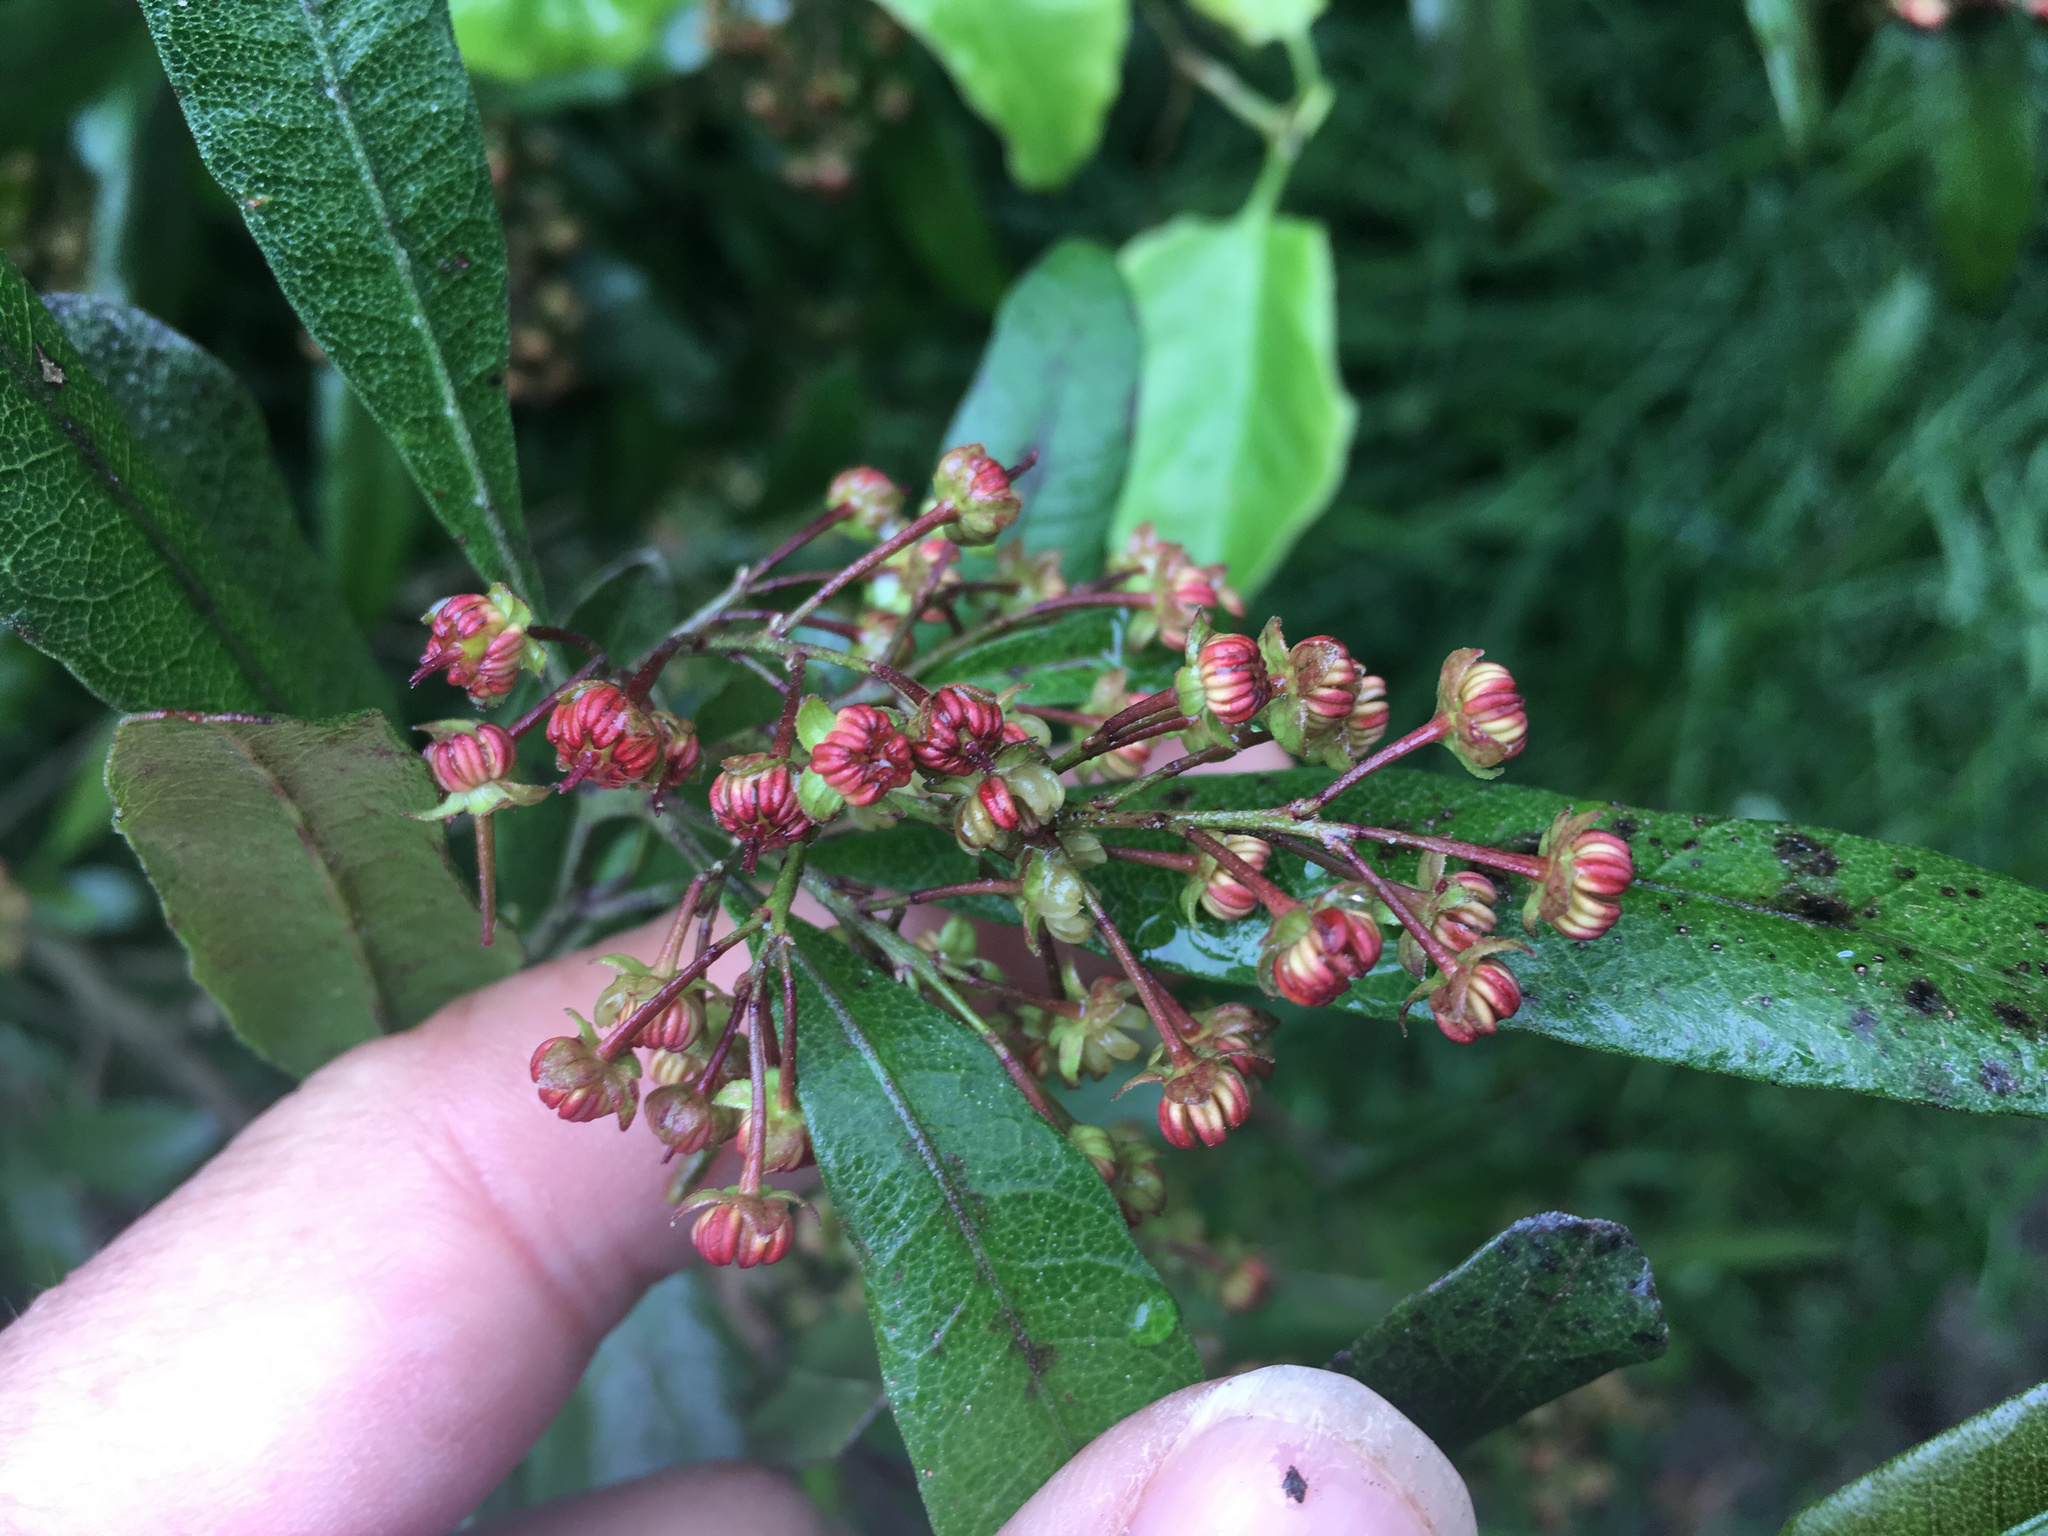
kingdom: Plantae
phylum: Tracheophyta
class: Magnoliopsida
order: Sapindales
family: Sapindaceae
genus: Dodonaea
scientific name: Dodonaea viscosa
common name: Hopbush
